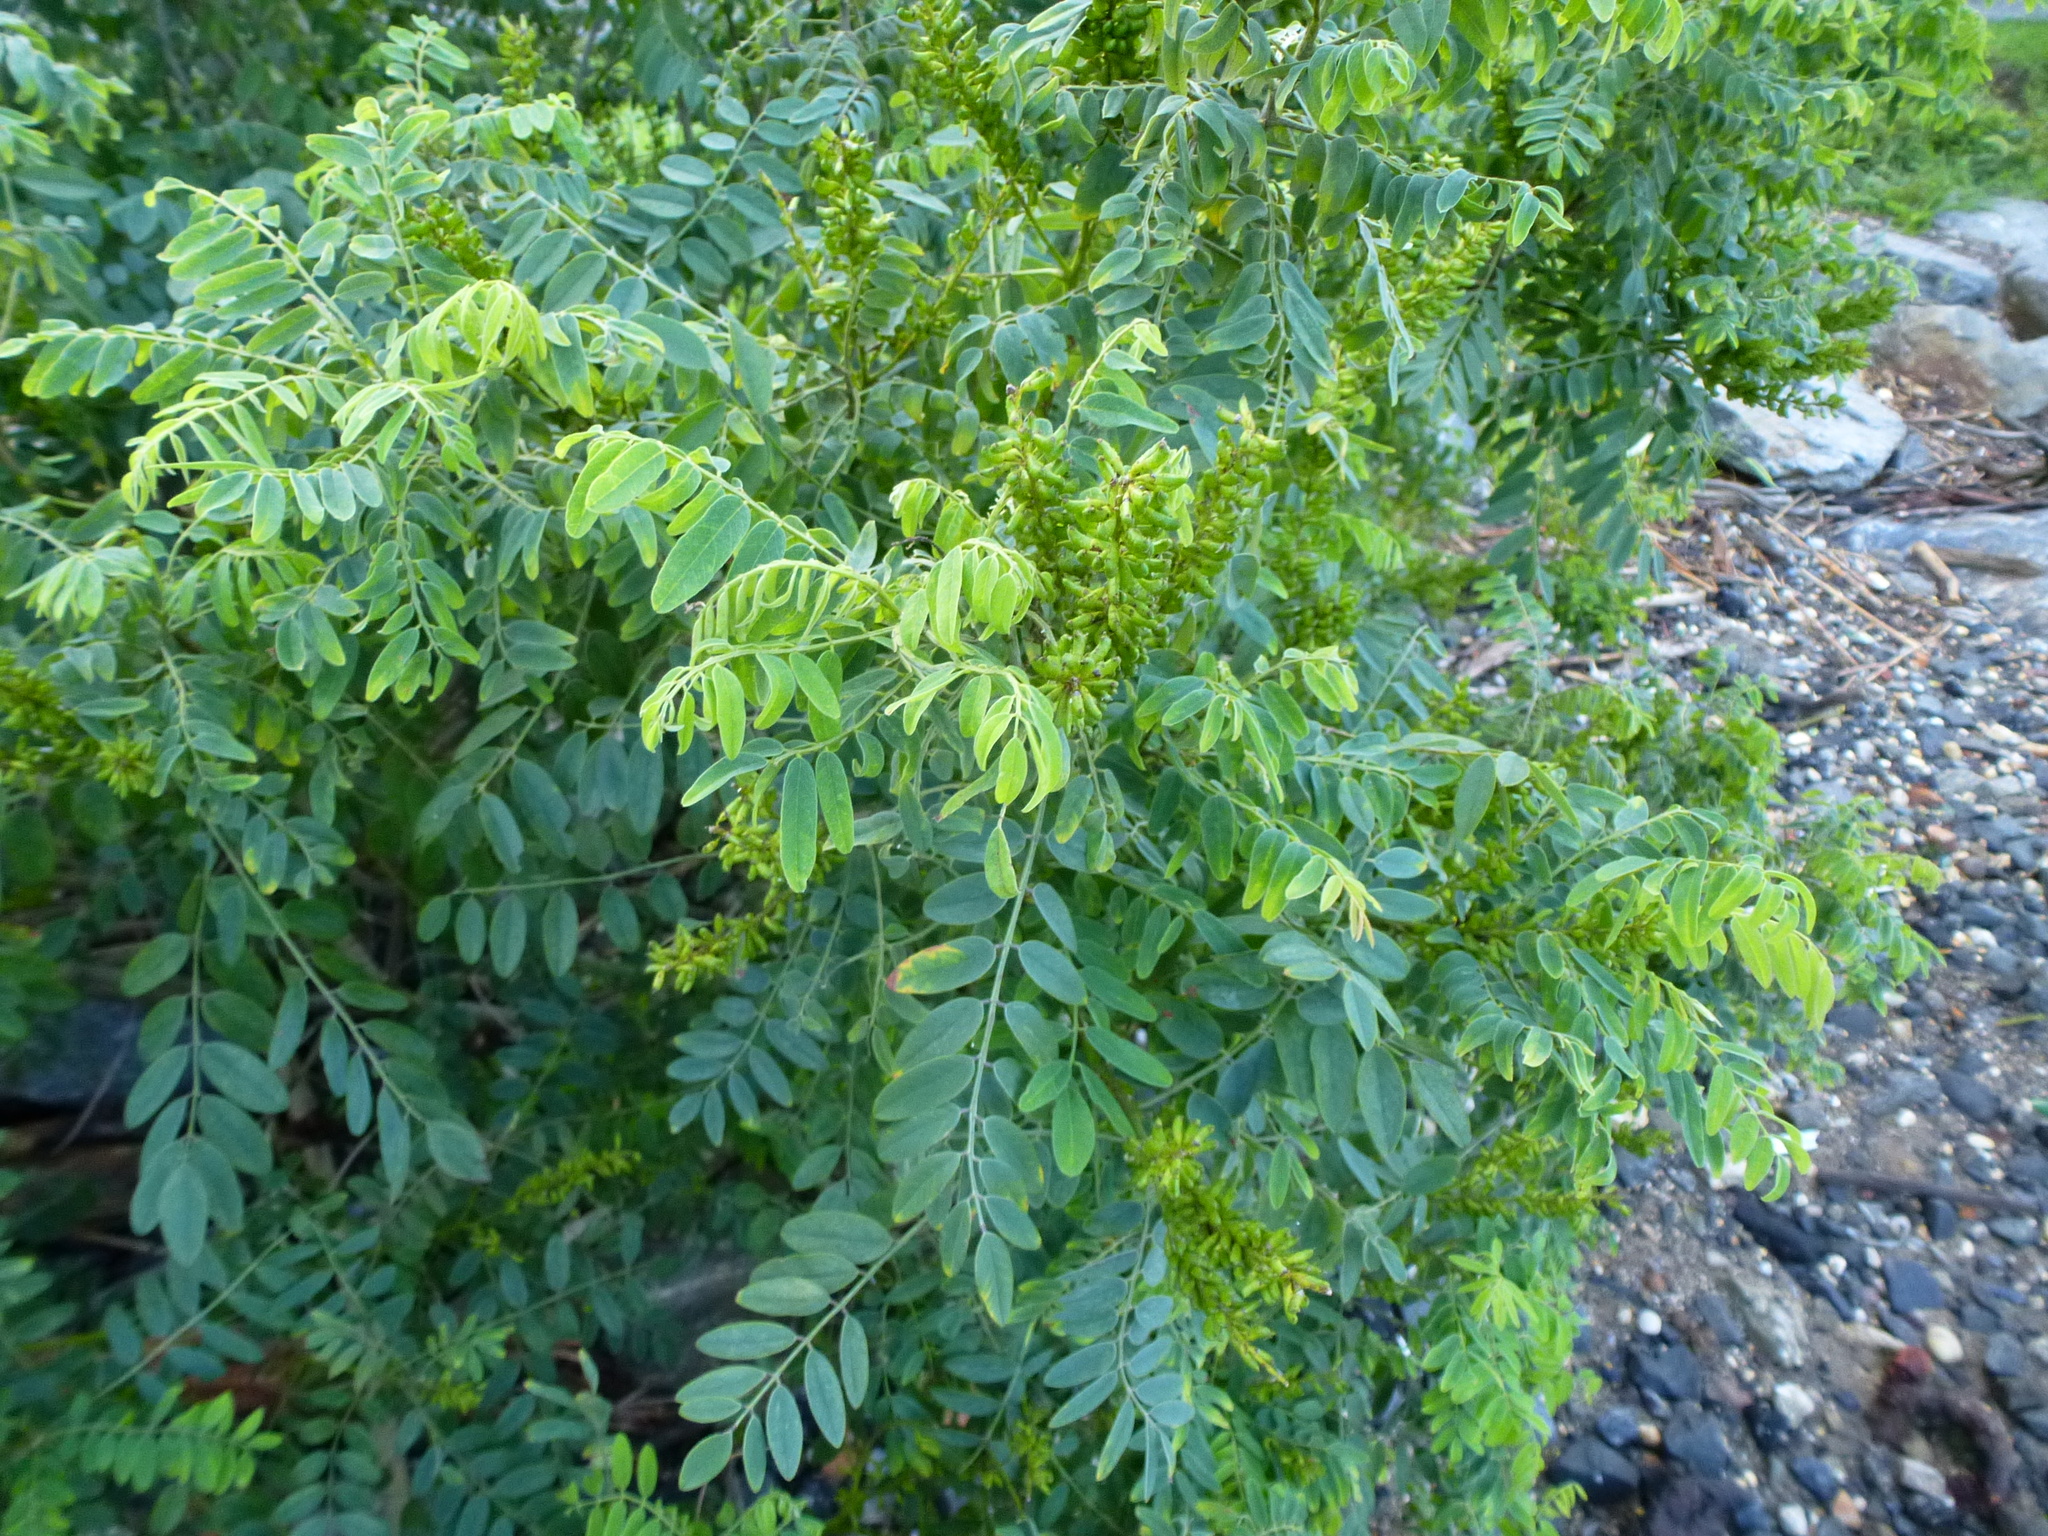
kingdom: Plantae
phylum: Tracheophyta
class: Magnoliopsida
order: Fabales
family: Fabaceae
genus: Amorpha
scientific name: Amorpha fruticosa
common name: False indigo
